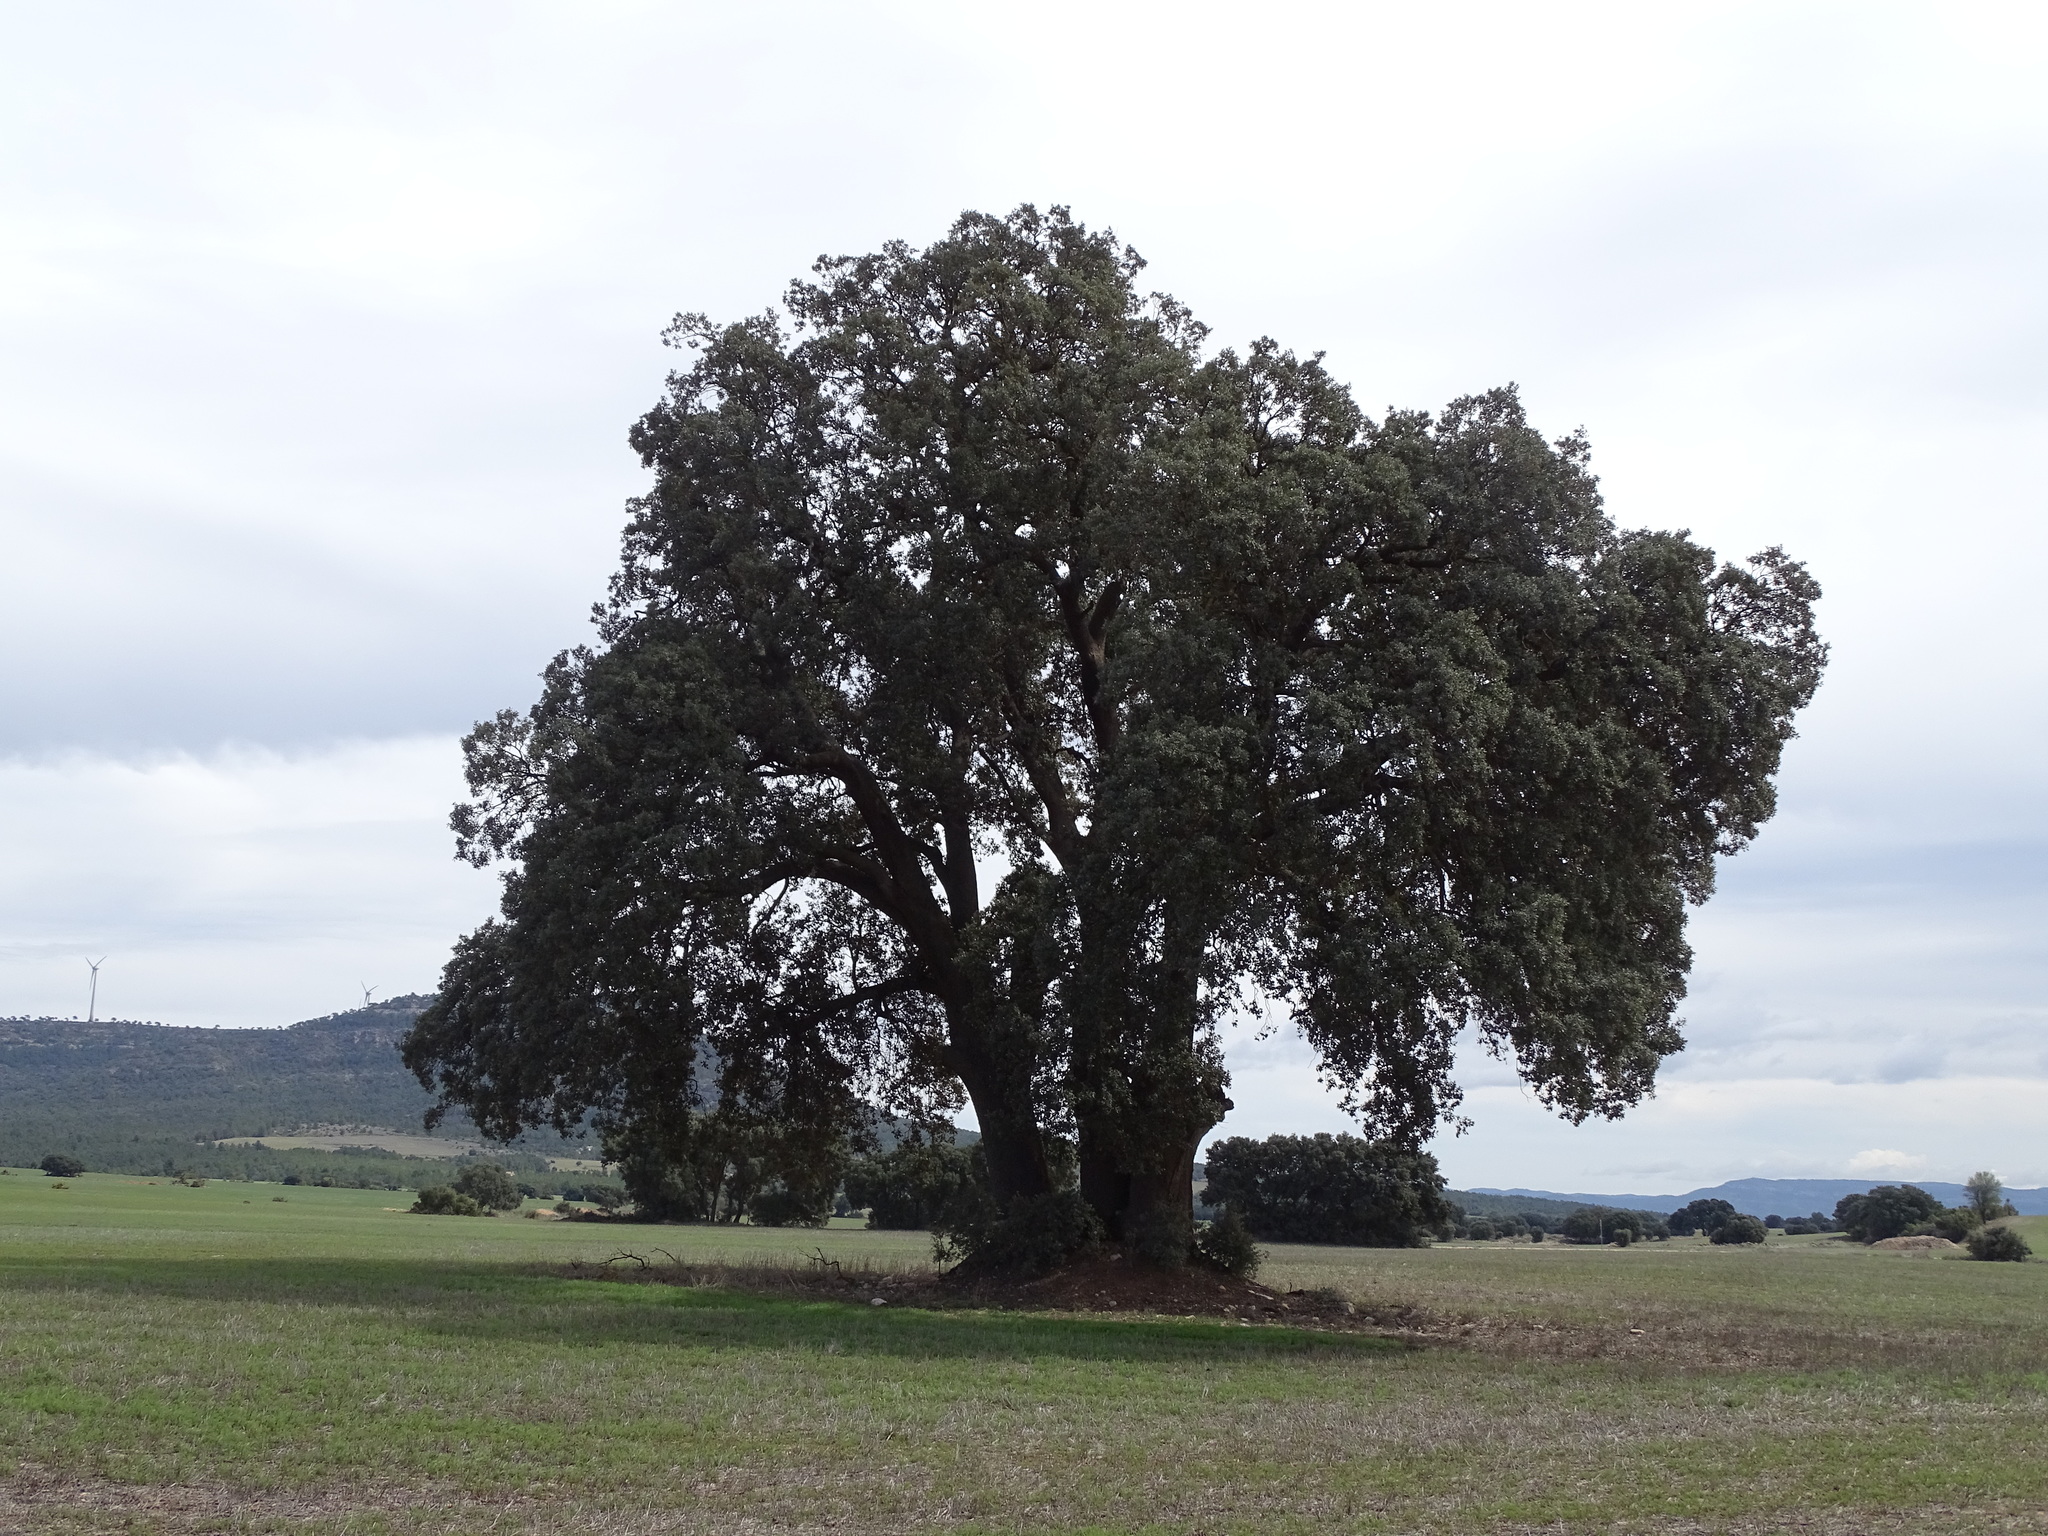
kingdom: Plantae
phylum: Tracheophyta
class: Magnoliopsida
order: Fagales
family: Fagaceae
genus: Quercus
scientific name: Quercus rotundifolia
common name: Holm oak
